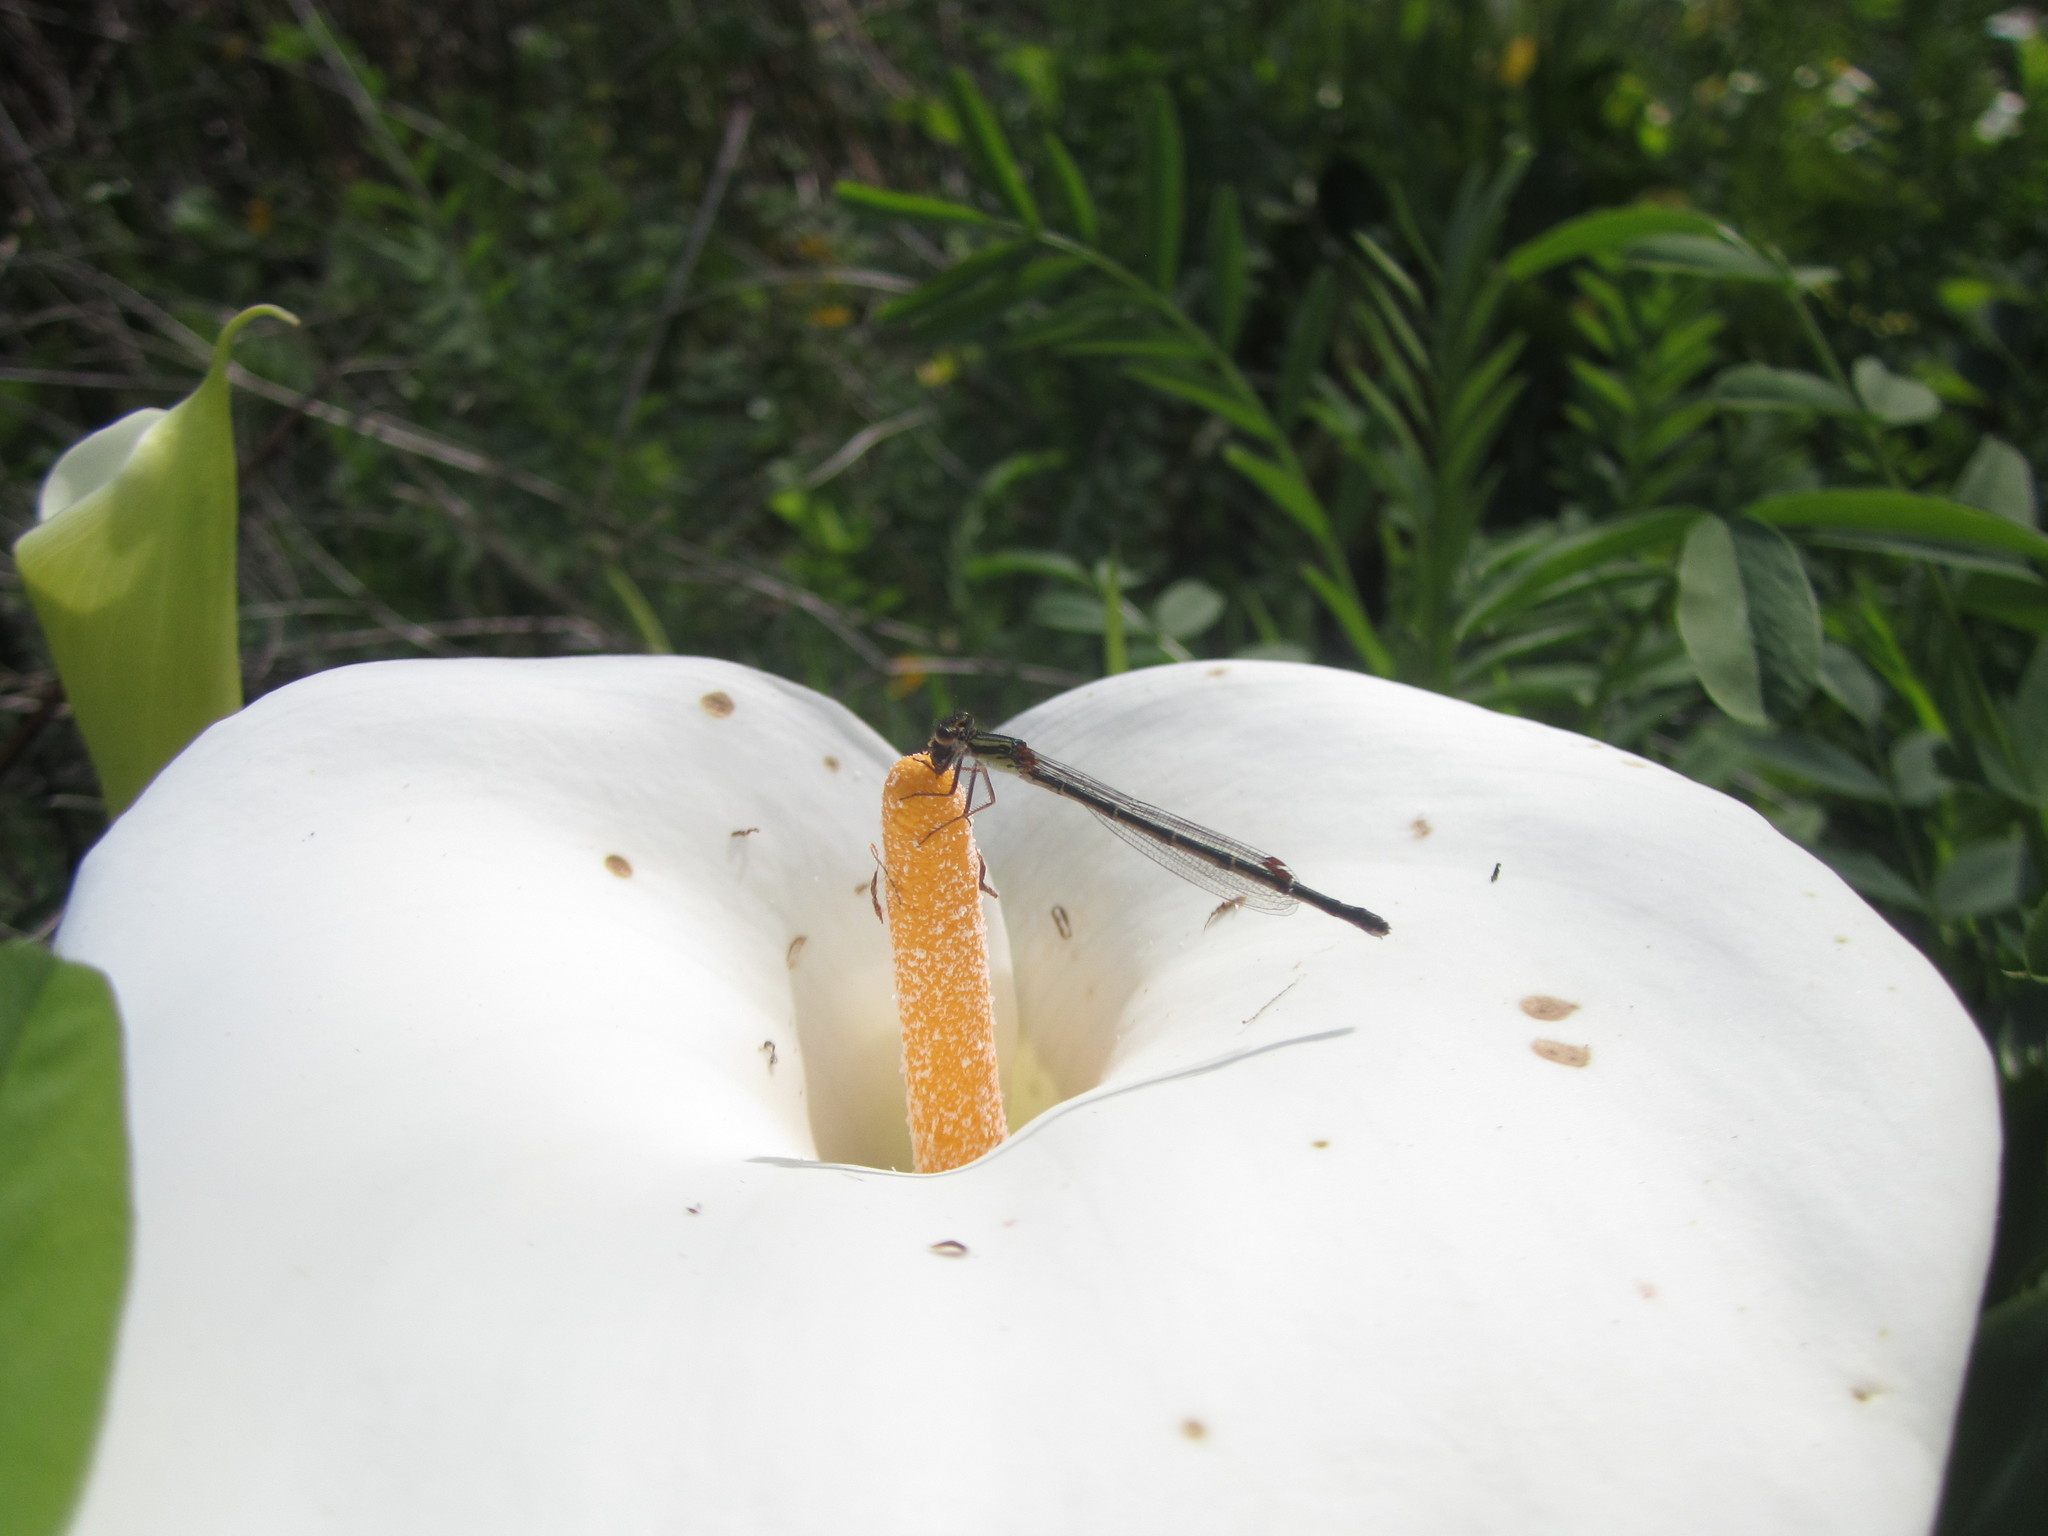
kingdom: Animalia
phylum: Arthropoda
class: Insecta
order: Odonata
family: Coenagrionidae
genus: Xanthocnemis
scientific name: Xanthocnemis zealandica
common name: Common redcoat damselfly
